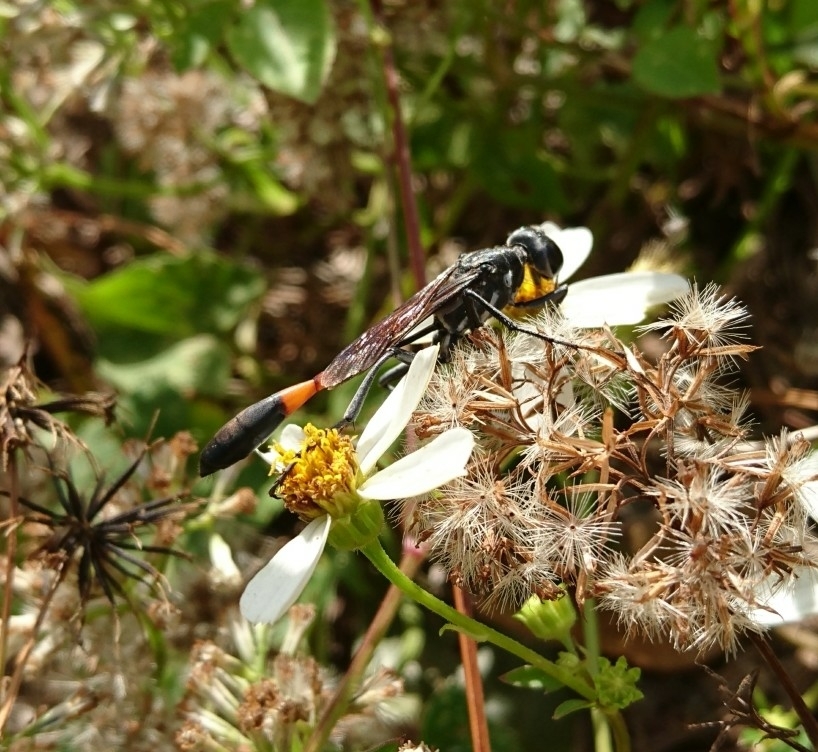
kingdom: Animalia
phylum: Arthropoda
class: Insecta
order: Hymenoptera
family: Sphecidae
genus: Ammophila
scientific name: Ammophila procera
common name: Common thread-waisted wasp
